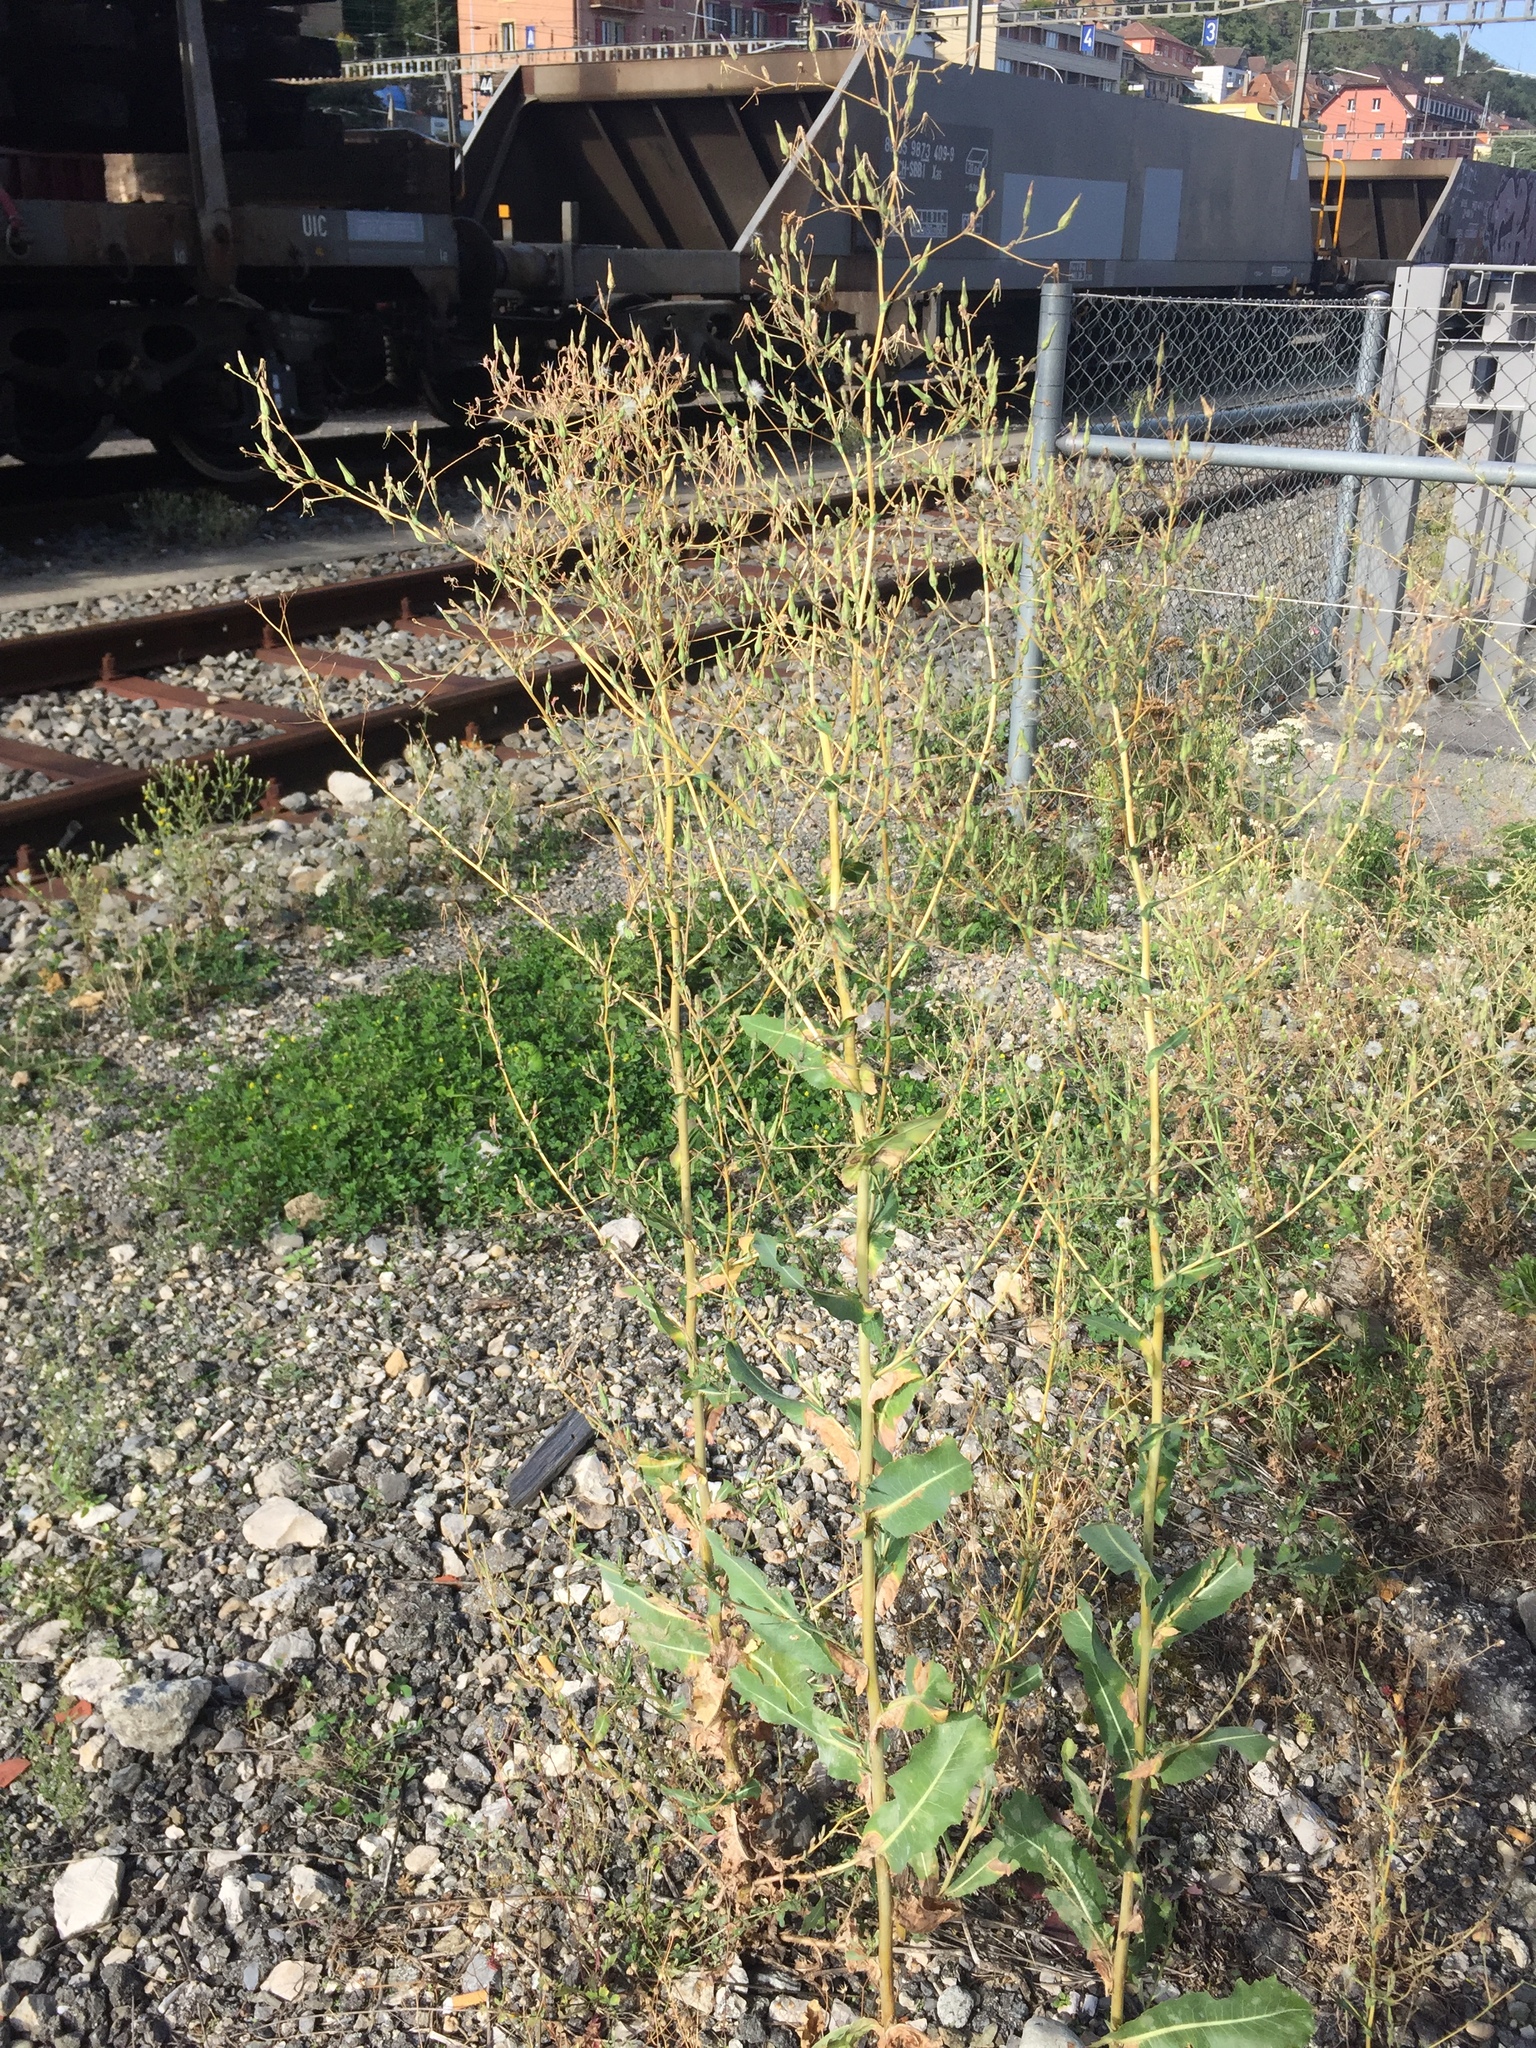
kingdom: Plantae
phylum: Tracheophyta
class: Magnoliopsida
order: Asterales
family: Asteraceae
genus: Lactuca
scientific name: Lactuca serriola
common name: Prickly lettuce
